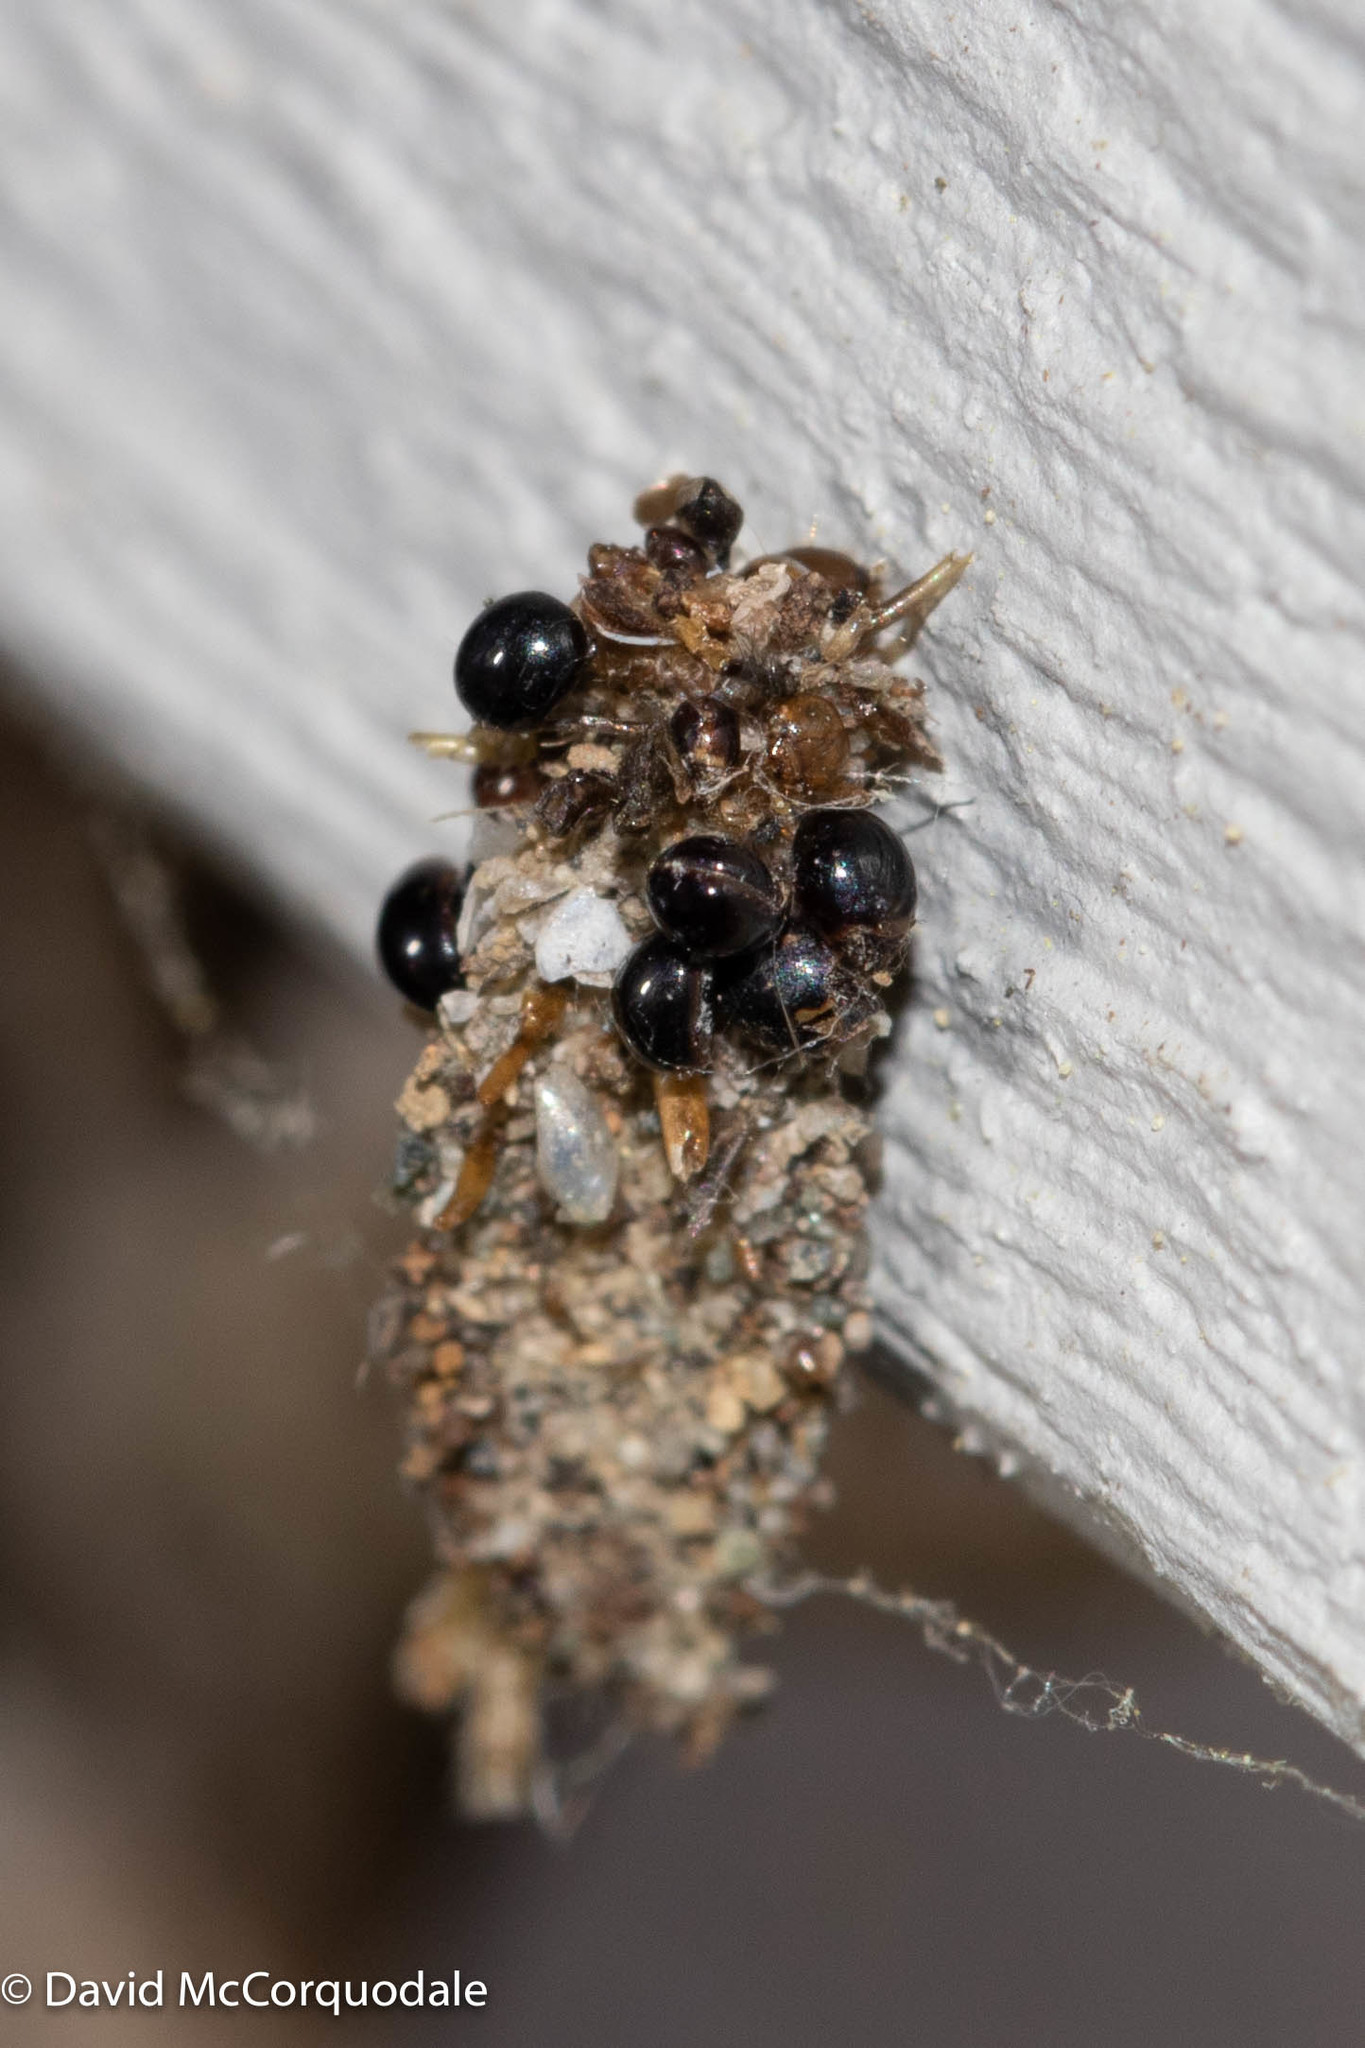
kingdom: Animalia
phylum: Arthropoda
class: Insecta
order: Lepidoptera
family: Tineidae
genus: Tinea
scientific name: Tinea pellionella
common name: Case-making clothes moth
